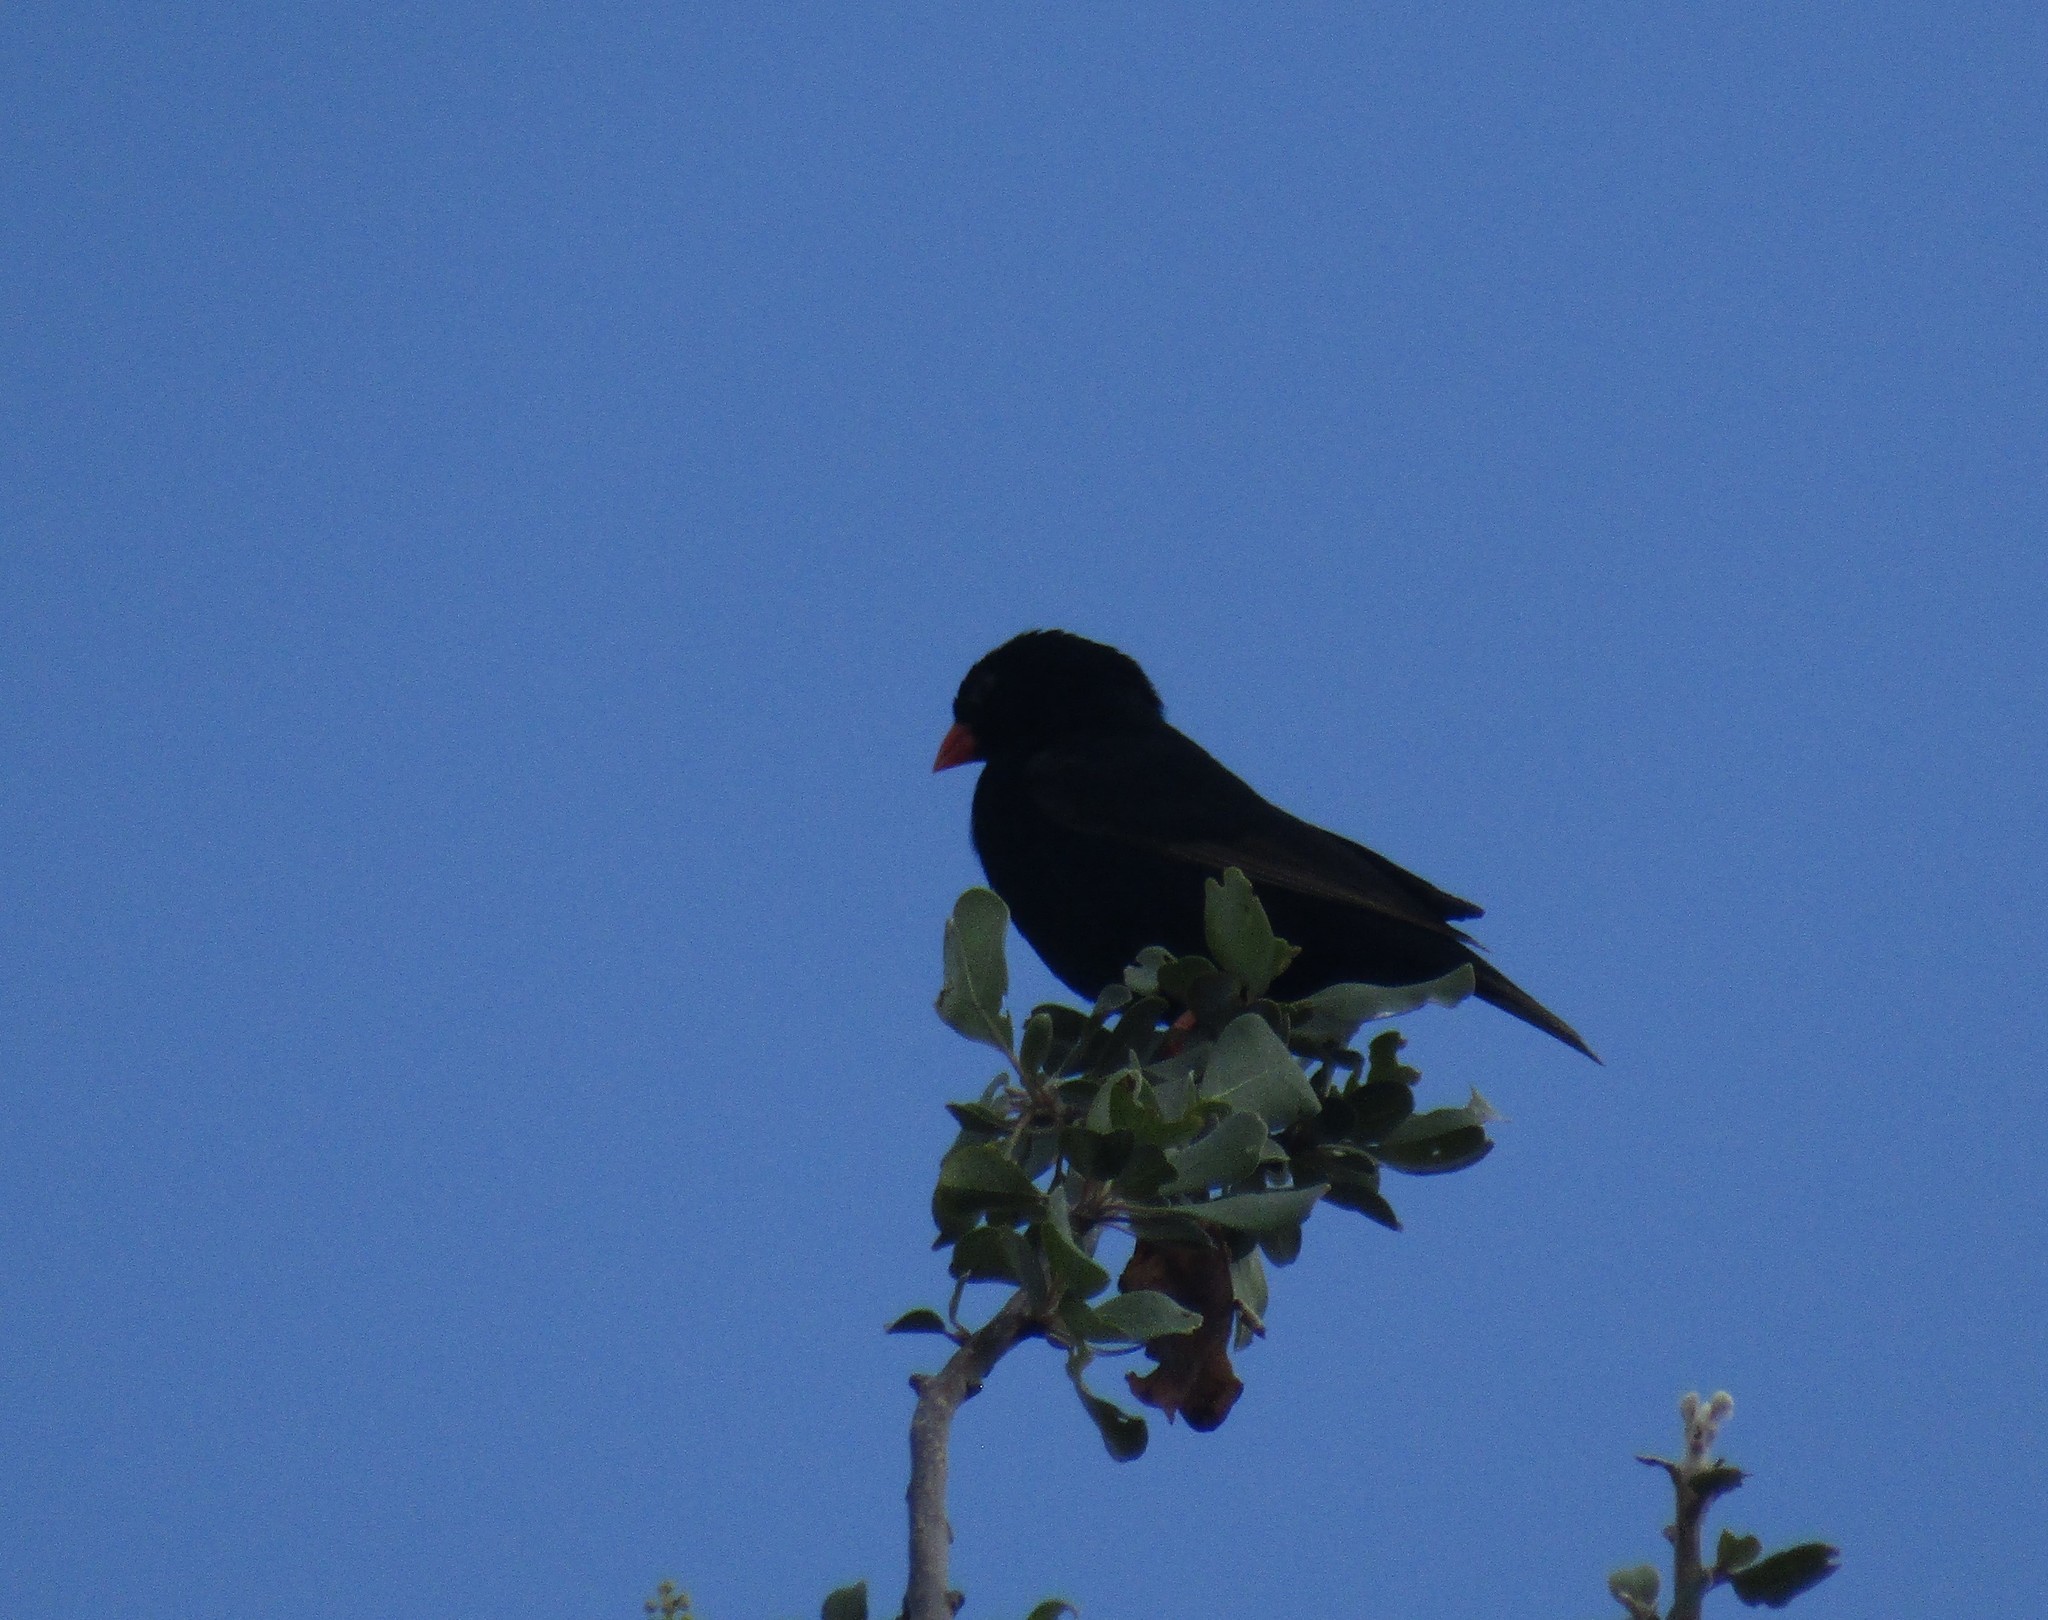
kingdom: Animalia
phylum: Chordata
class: Aves
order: Passeriformes
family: Viduidae
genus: Vidua
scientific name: Vidua chalybeata
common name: Village indigobird
